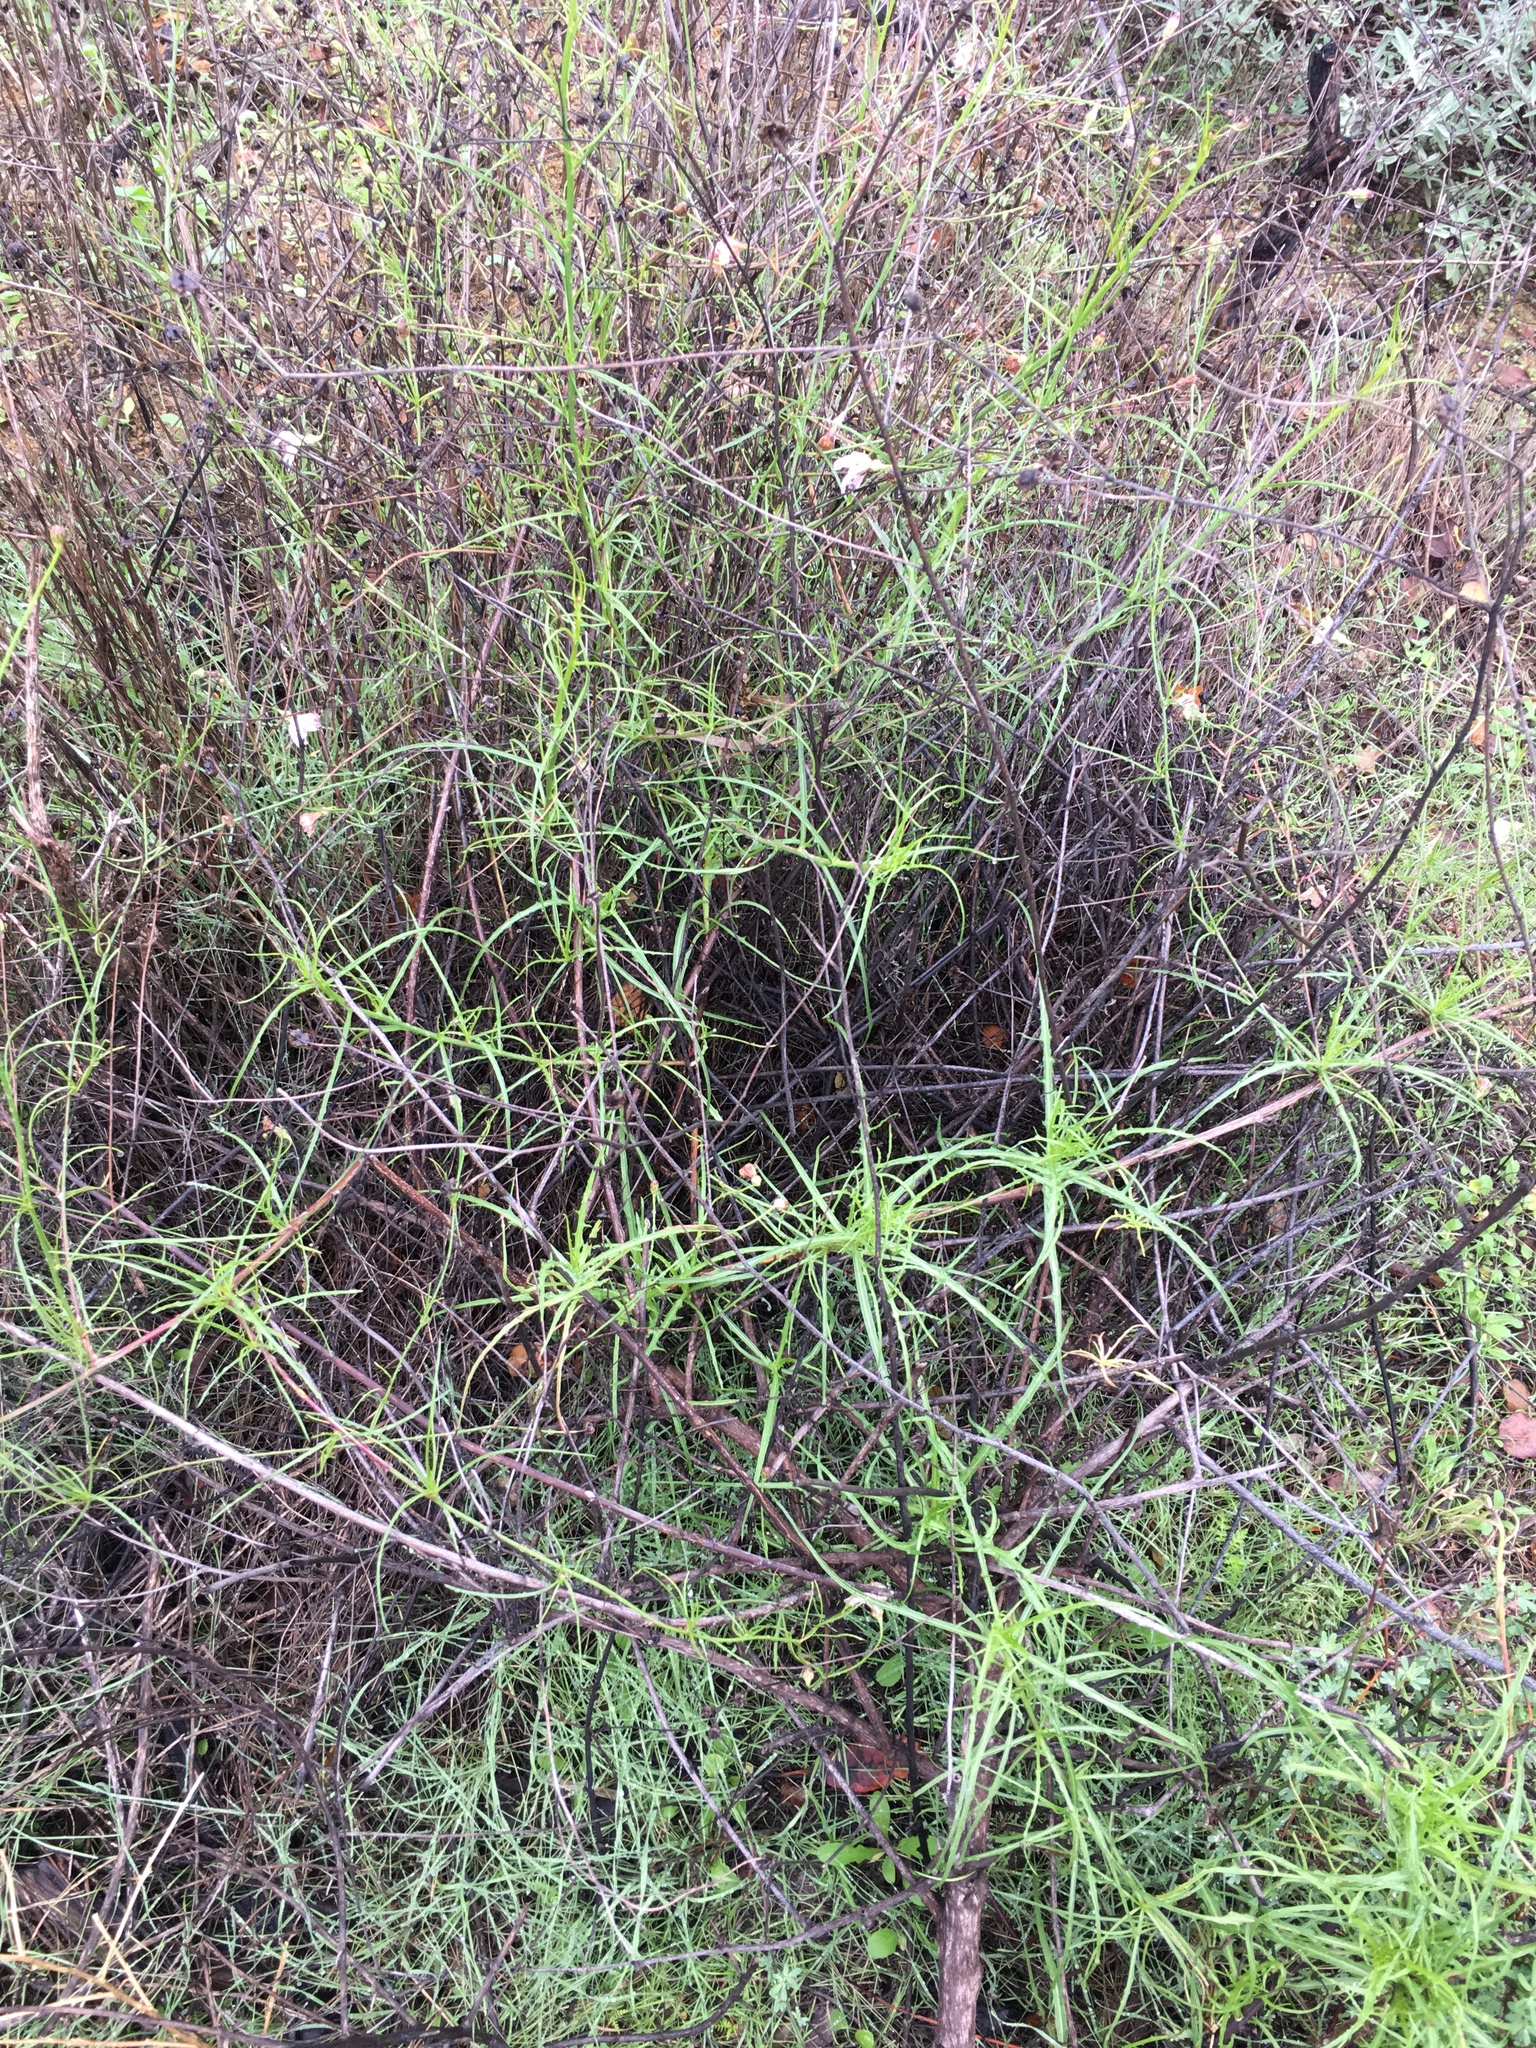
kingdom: Plantae
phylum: Tracheophyta
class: Magnoliopsida
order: Asterales
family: Asteraceae
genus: Malacothrix
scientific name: Malacothrix saxatilis
